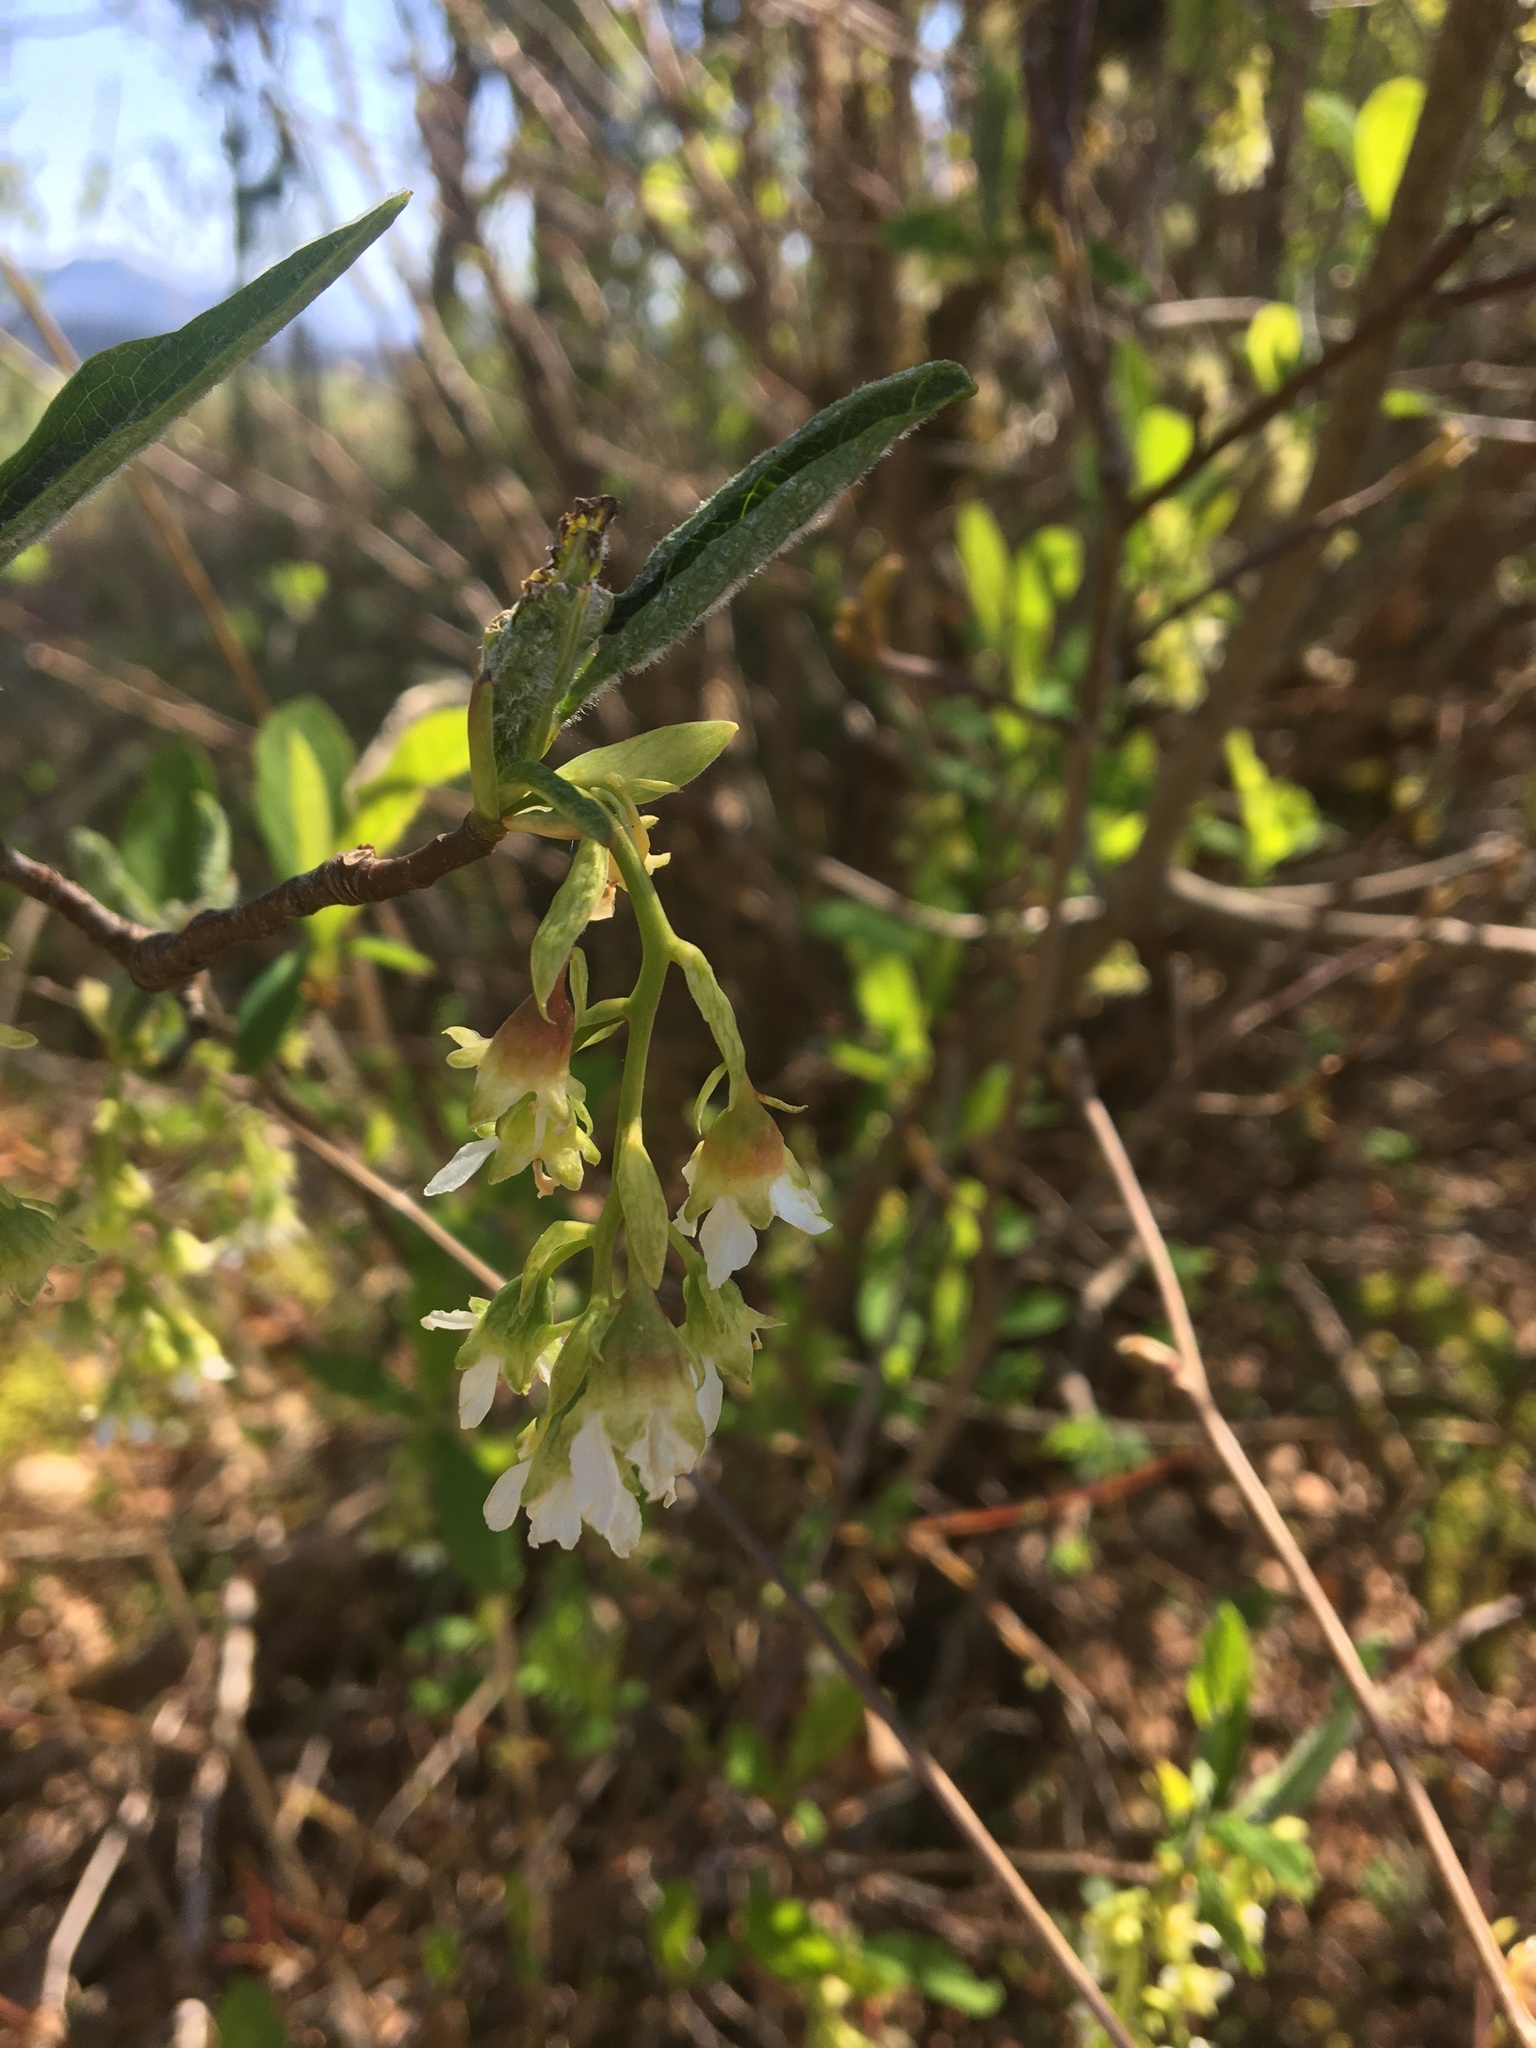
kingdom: Plantae
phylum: Tracheophyta
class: Magnoliopsida
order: Rosales
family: Rosaceae
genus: Oemleria
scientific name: Oemleria cerasiformis
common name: Osoberry
